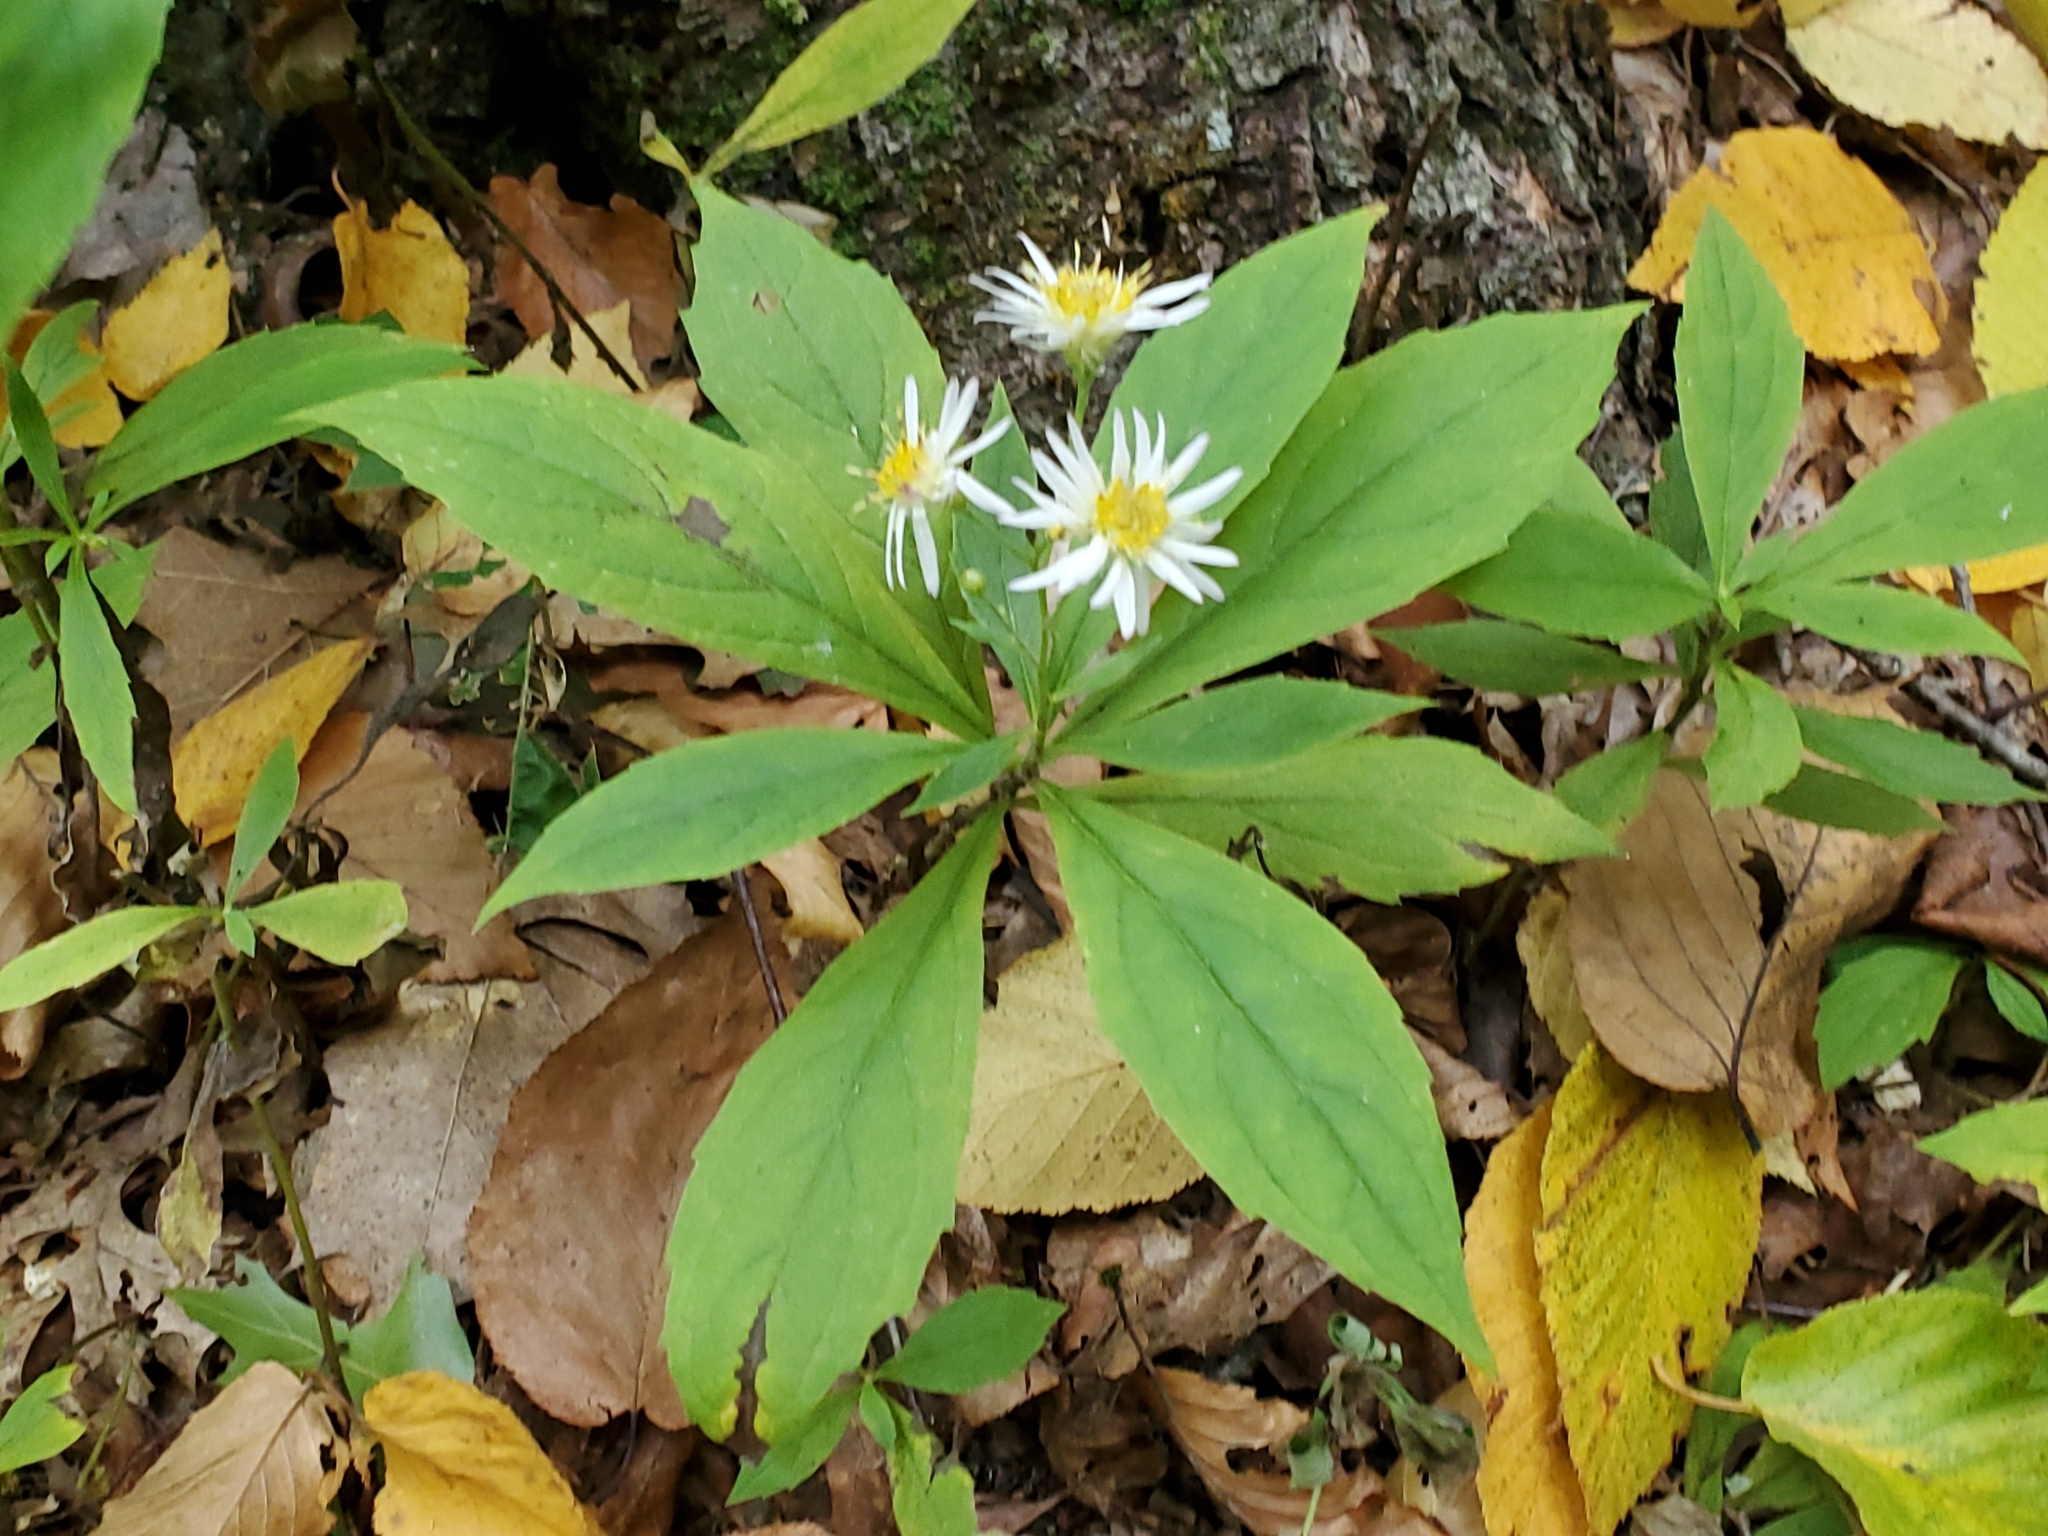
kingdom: Plantae
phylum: Tracheophyta
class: Magnoliopsida
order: Asterales
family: Asteraceae
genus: Oclemena
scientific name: Oclemena acuminata
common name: Mountain aster
